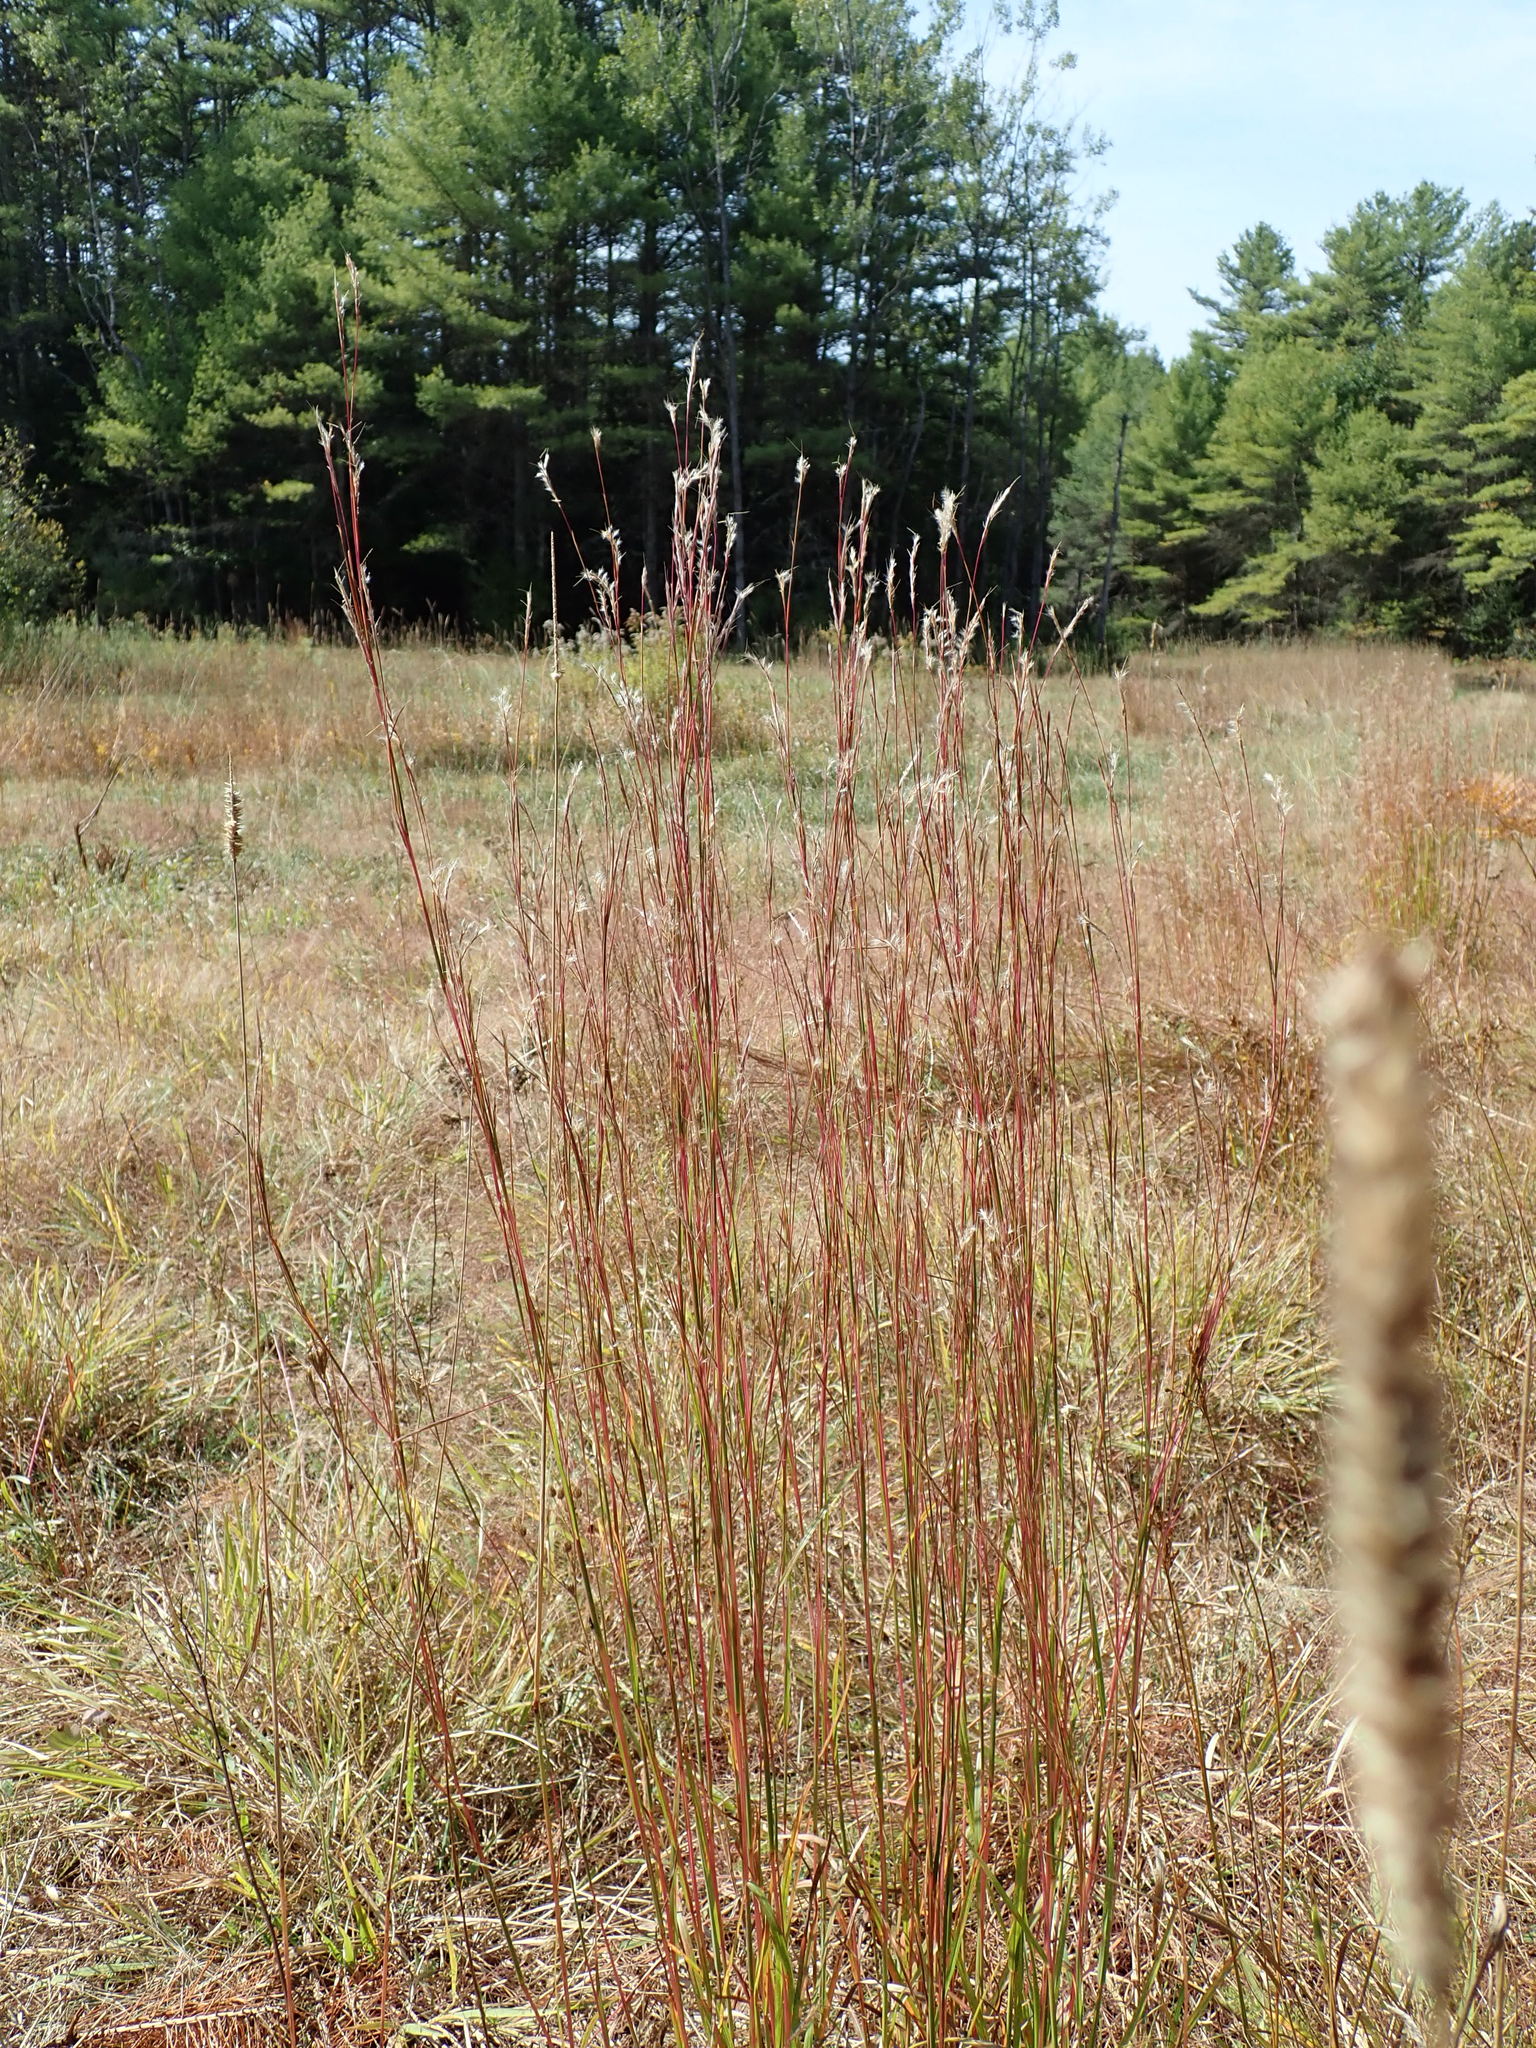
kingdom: Plantae
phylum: Tracheophyta
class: Liliopsida
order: Poales
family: Poaceae
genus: Schizachyrium
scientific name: Schizachyrium scoparium
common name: Little bluestem
